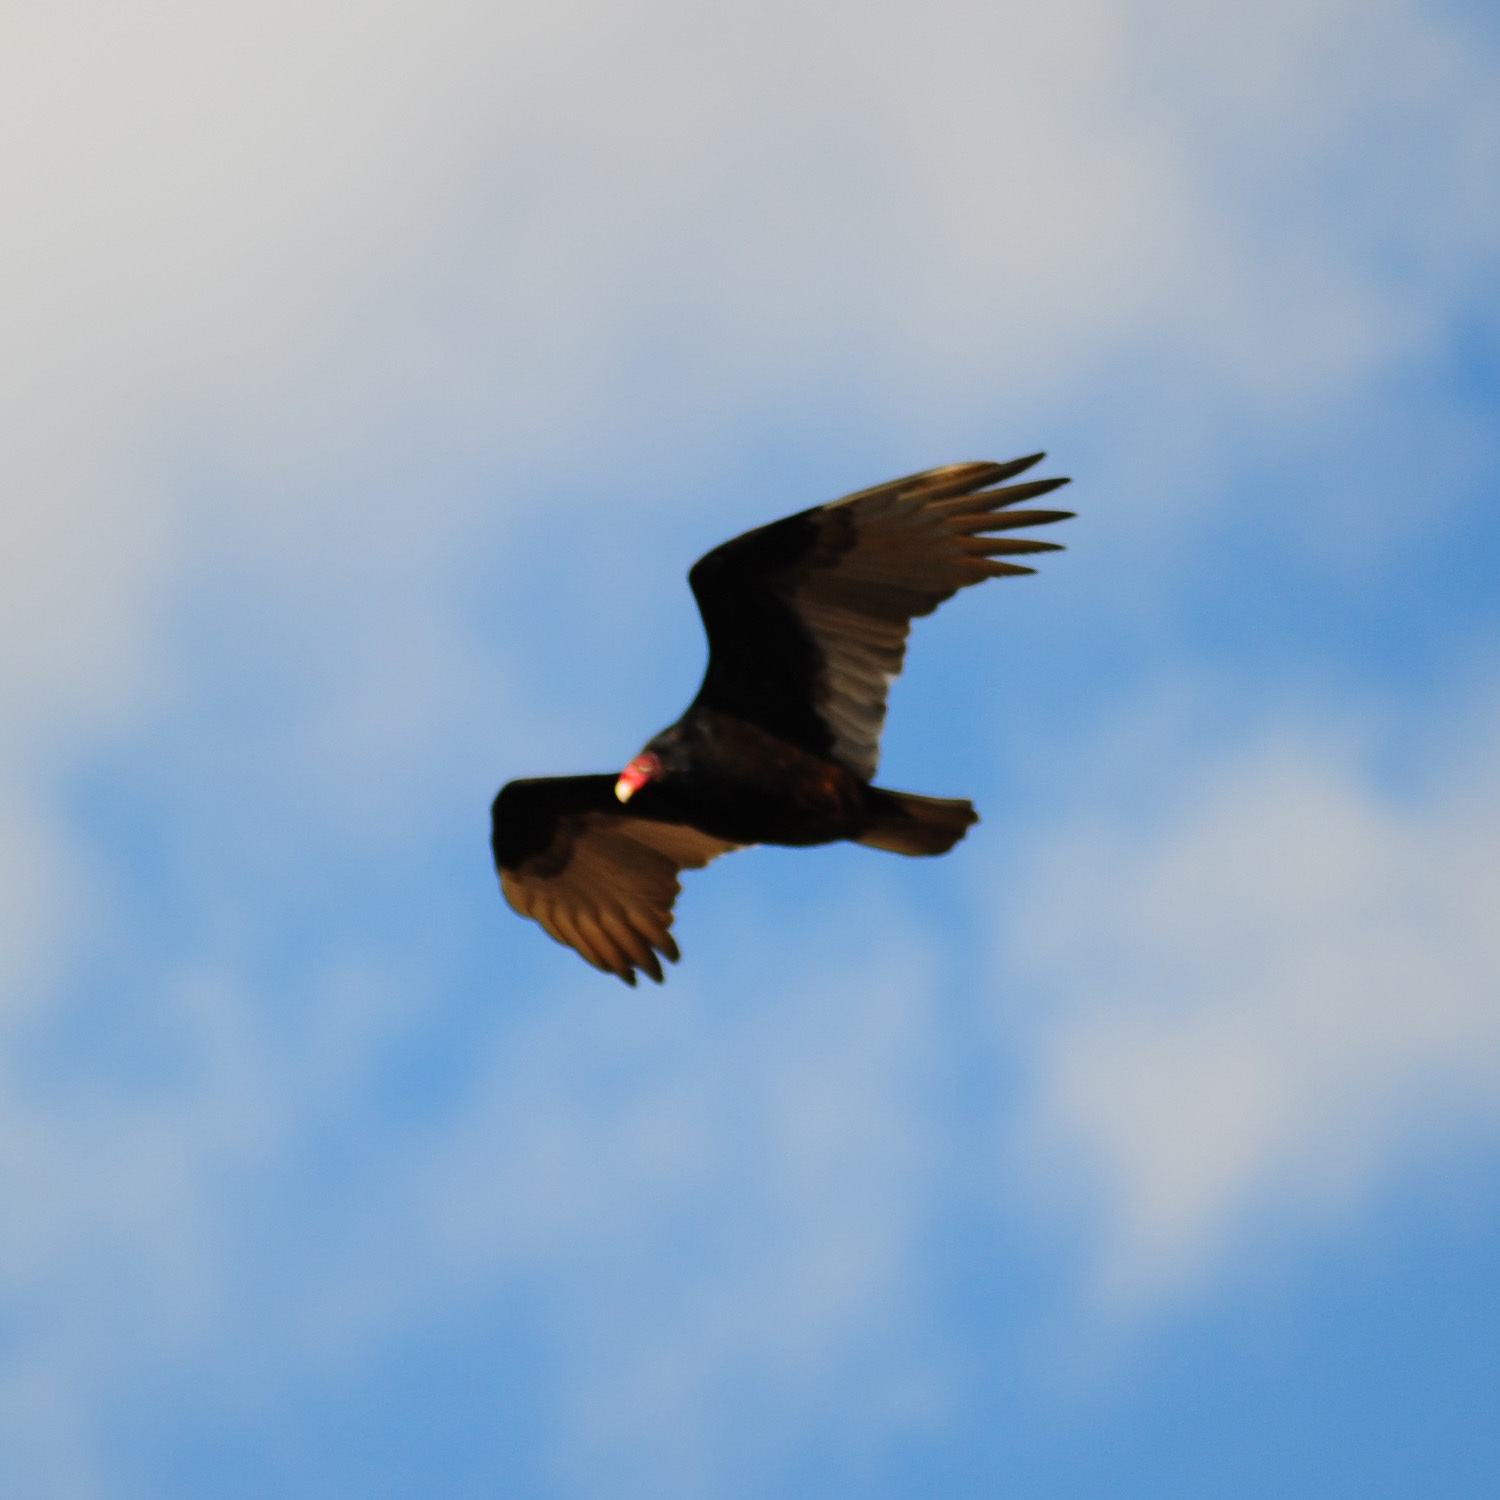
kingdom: Animalia
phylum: Chordata
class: Aves
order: Accipitriformes
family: Cathartidae
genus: Cathartes
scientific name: Cathartes aura
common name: Turkey vulture
